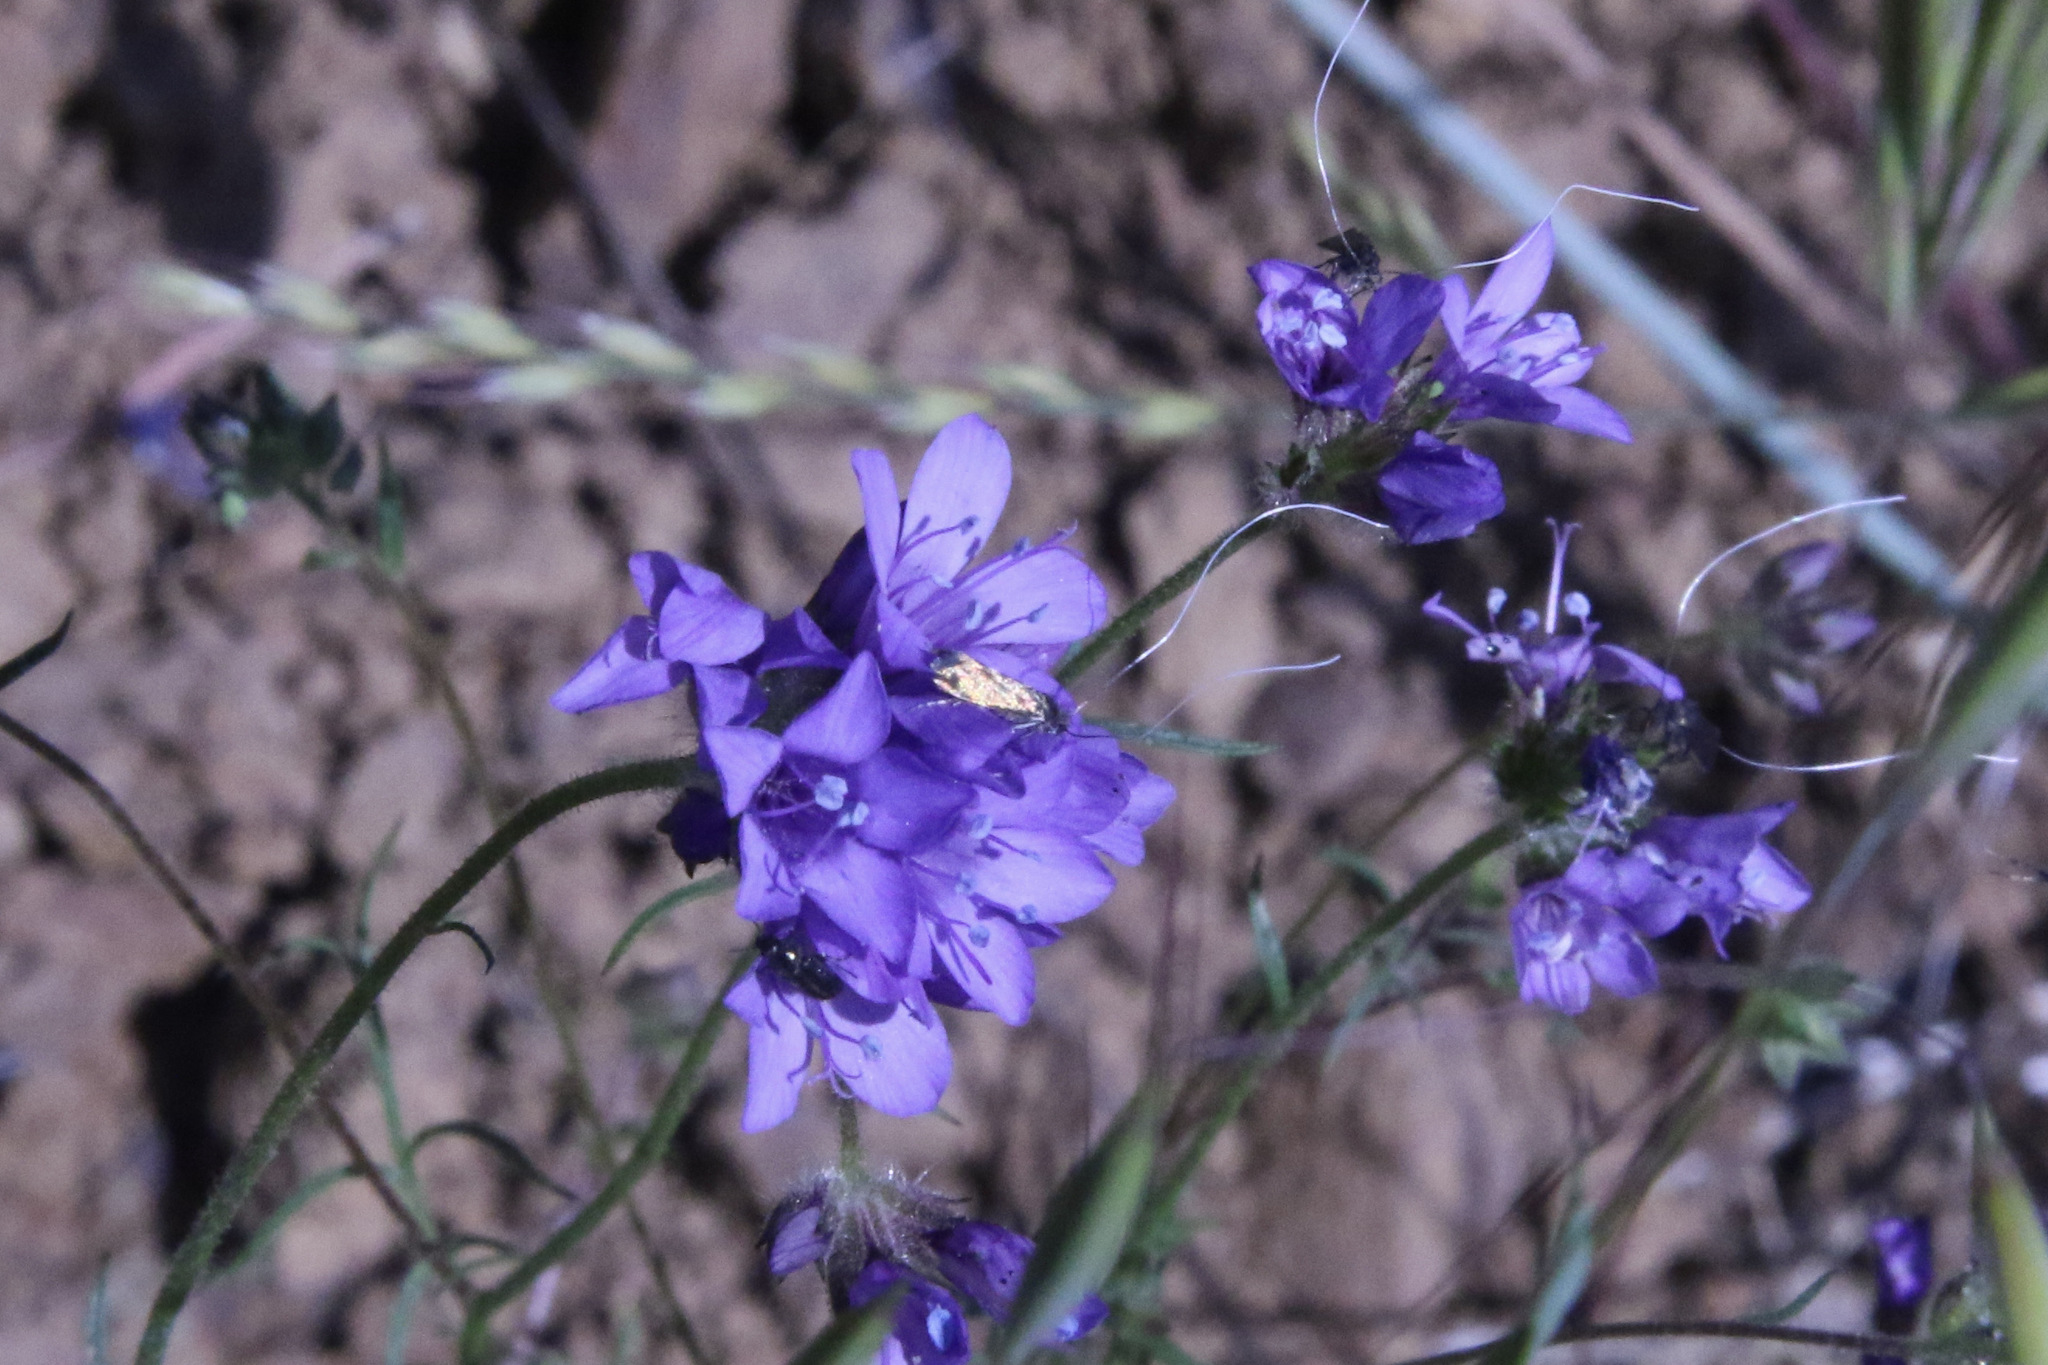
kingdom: Animalia
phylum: Arthropoda
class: Insecta
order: Lepidoptera
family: Adelidae
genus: Adela
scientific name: Adela singulella
